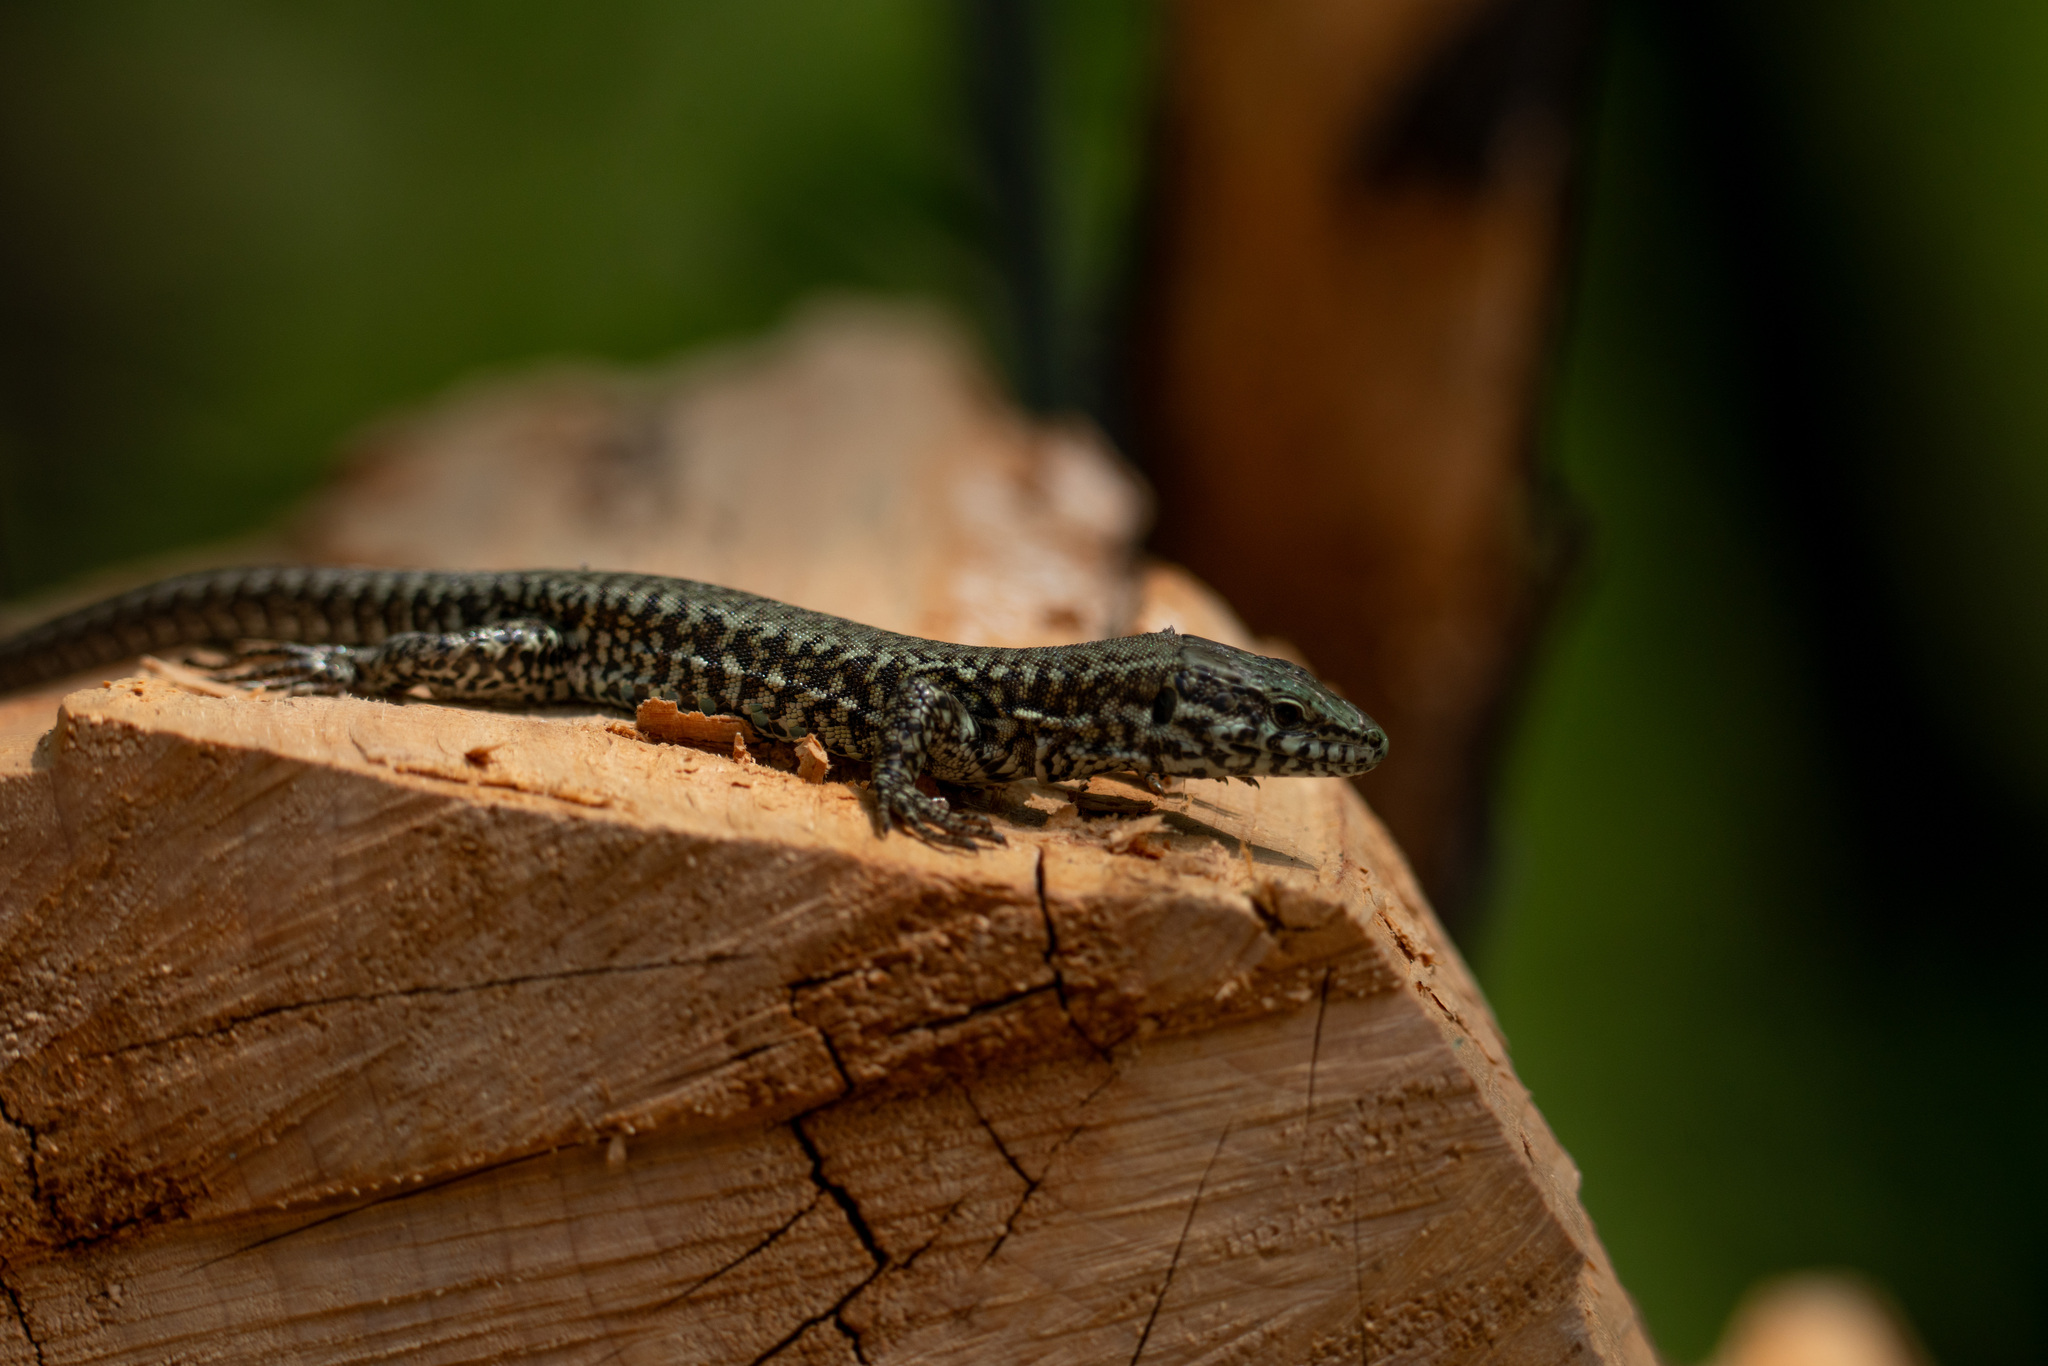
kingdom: Animalia
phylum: Chordata
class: Squamata
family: Lacertidae
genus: Podarcis
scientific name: Podarcis muralis
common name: Common wall lizard
